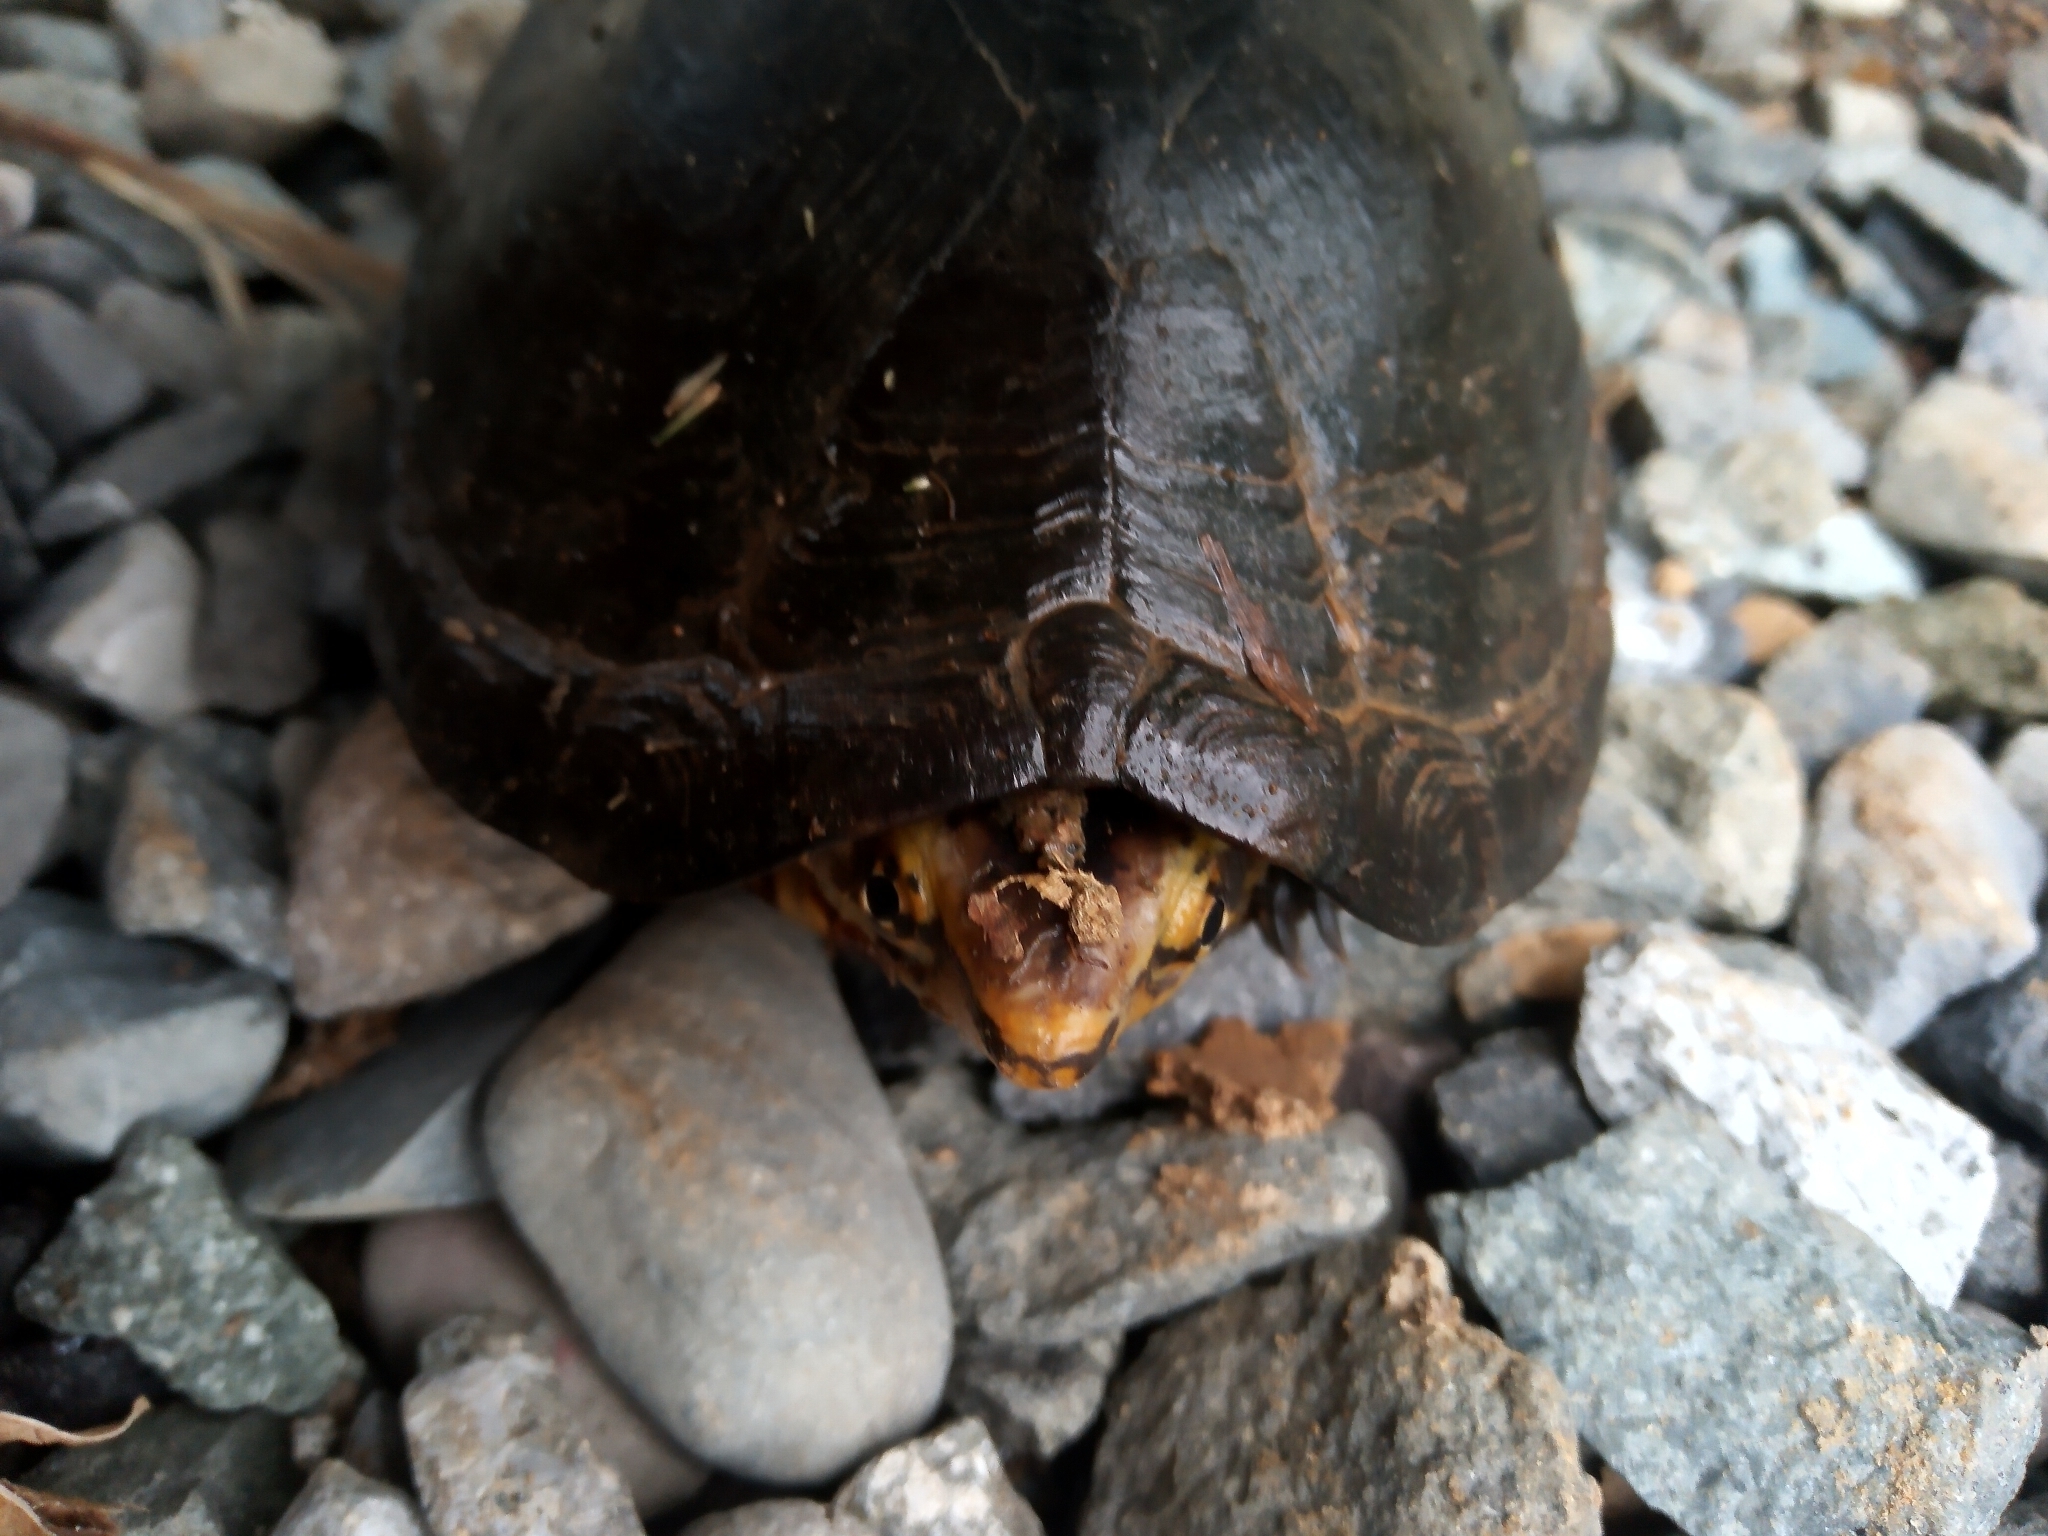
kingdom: Animalia
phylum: Chordata
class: Testudines
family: Kinosternidae
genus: Kinosternon
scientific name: Kinosternon leucostomum
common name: White-lipped mud turtle
